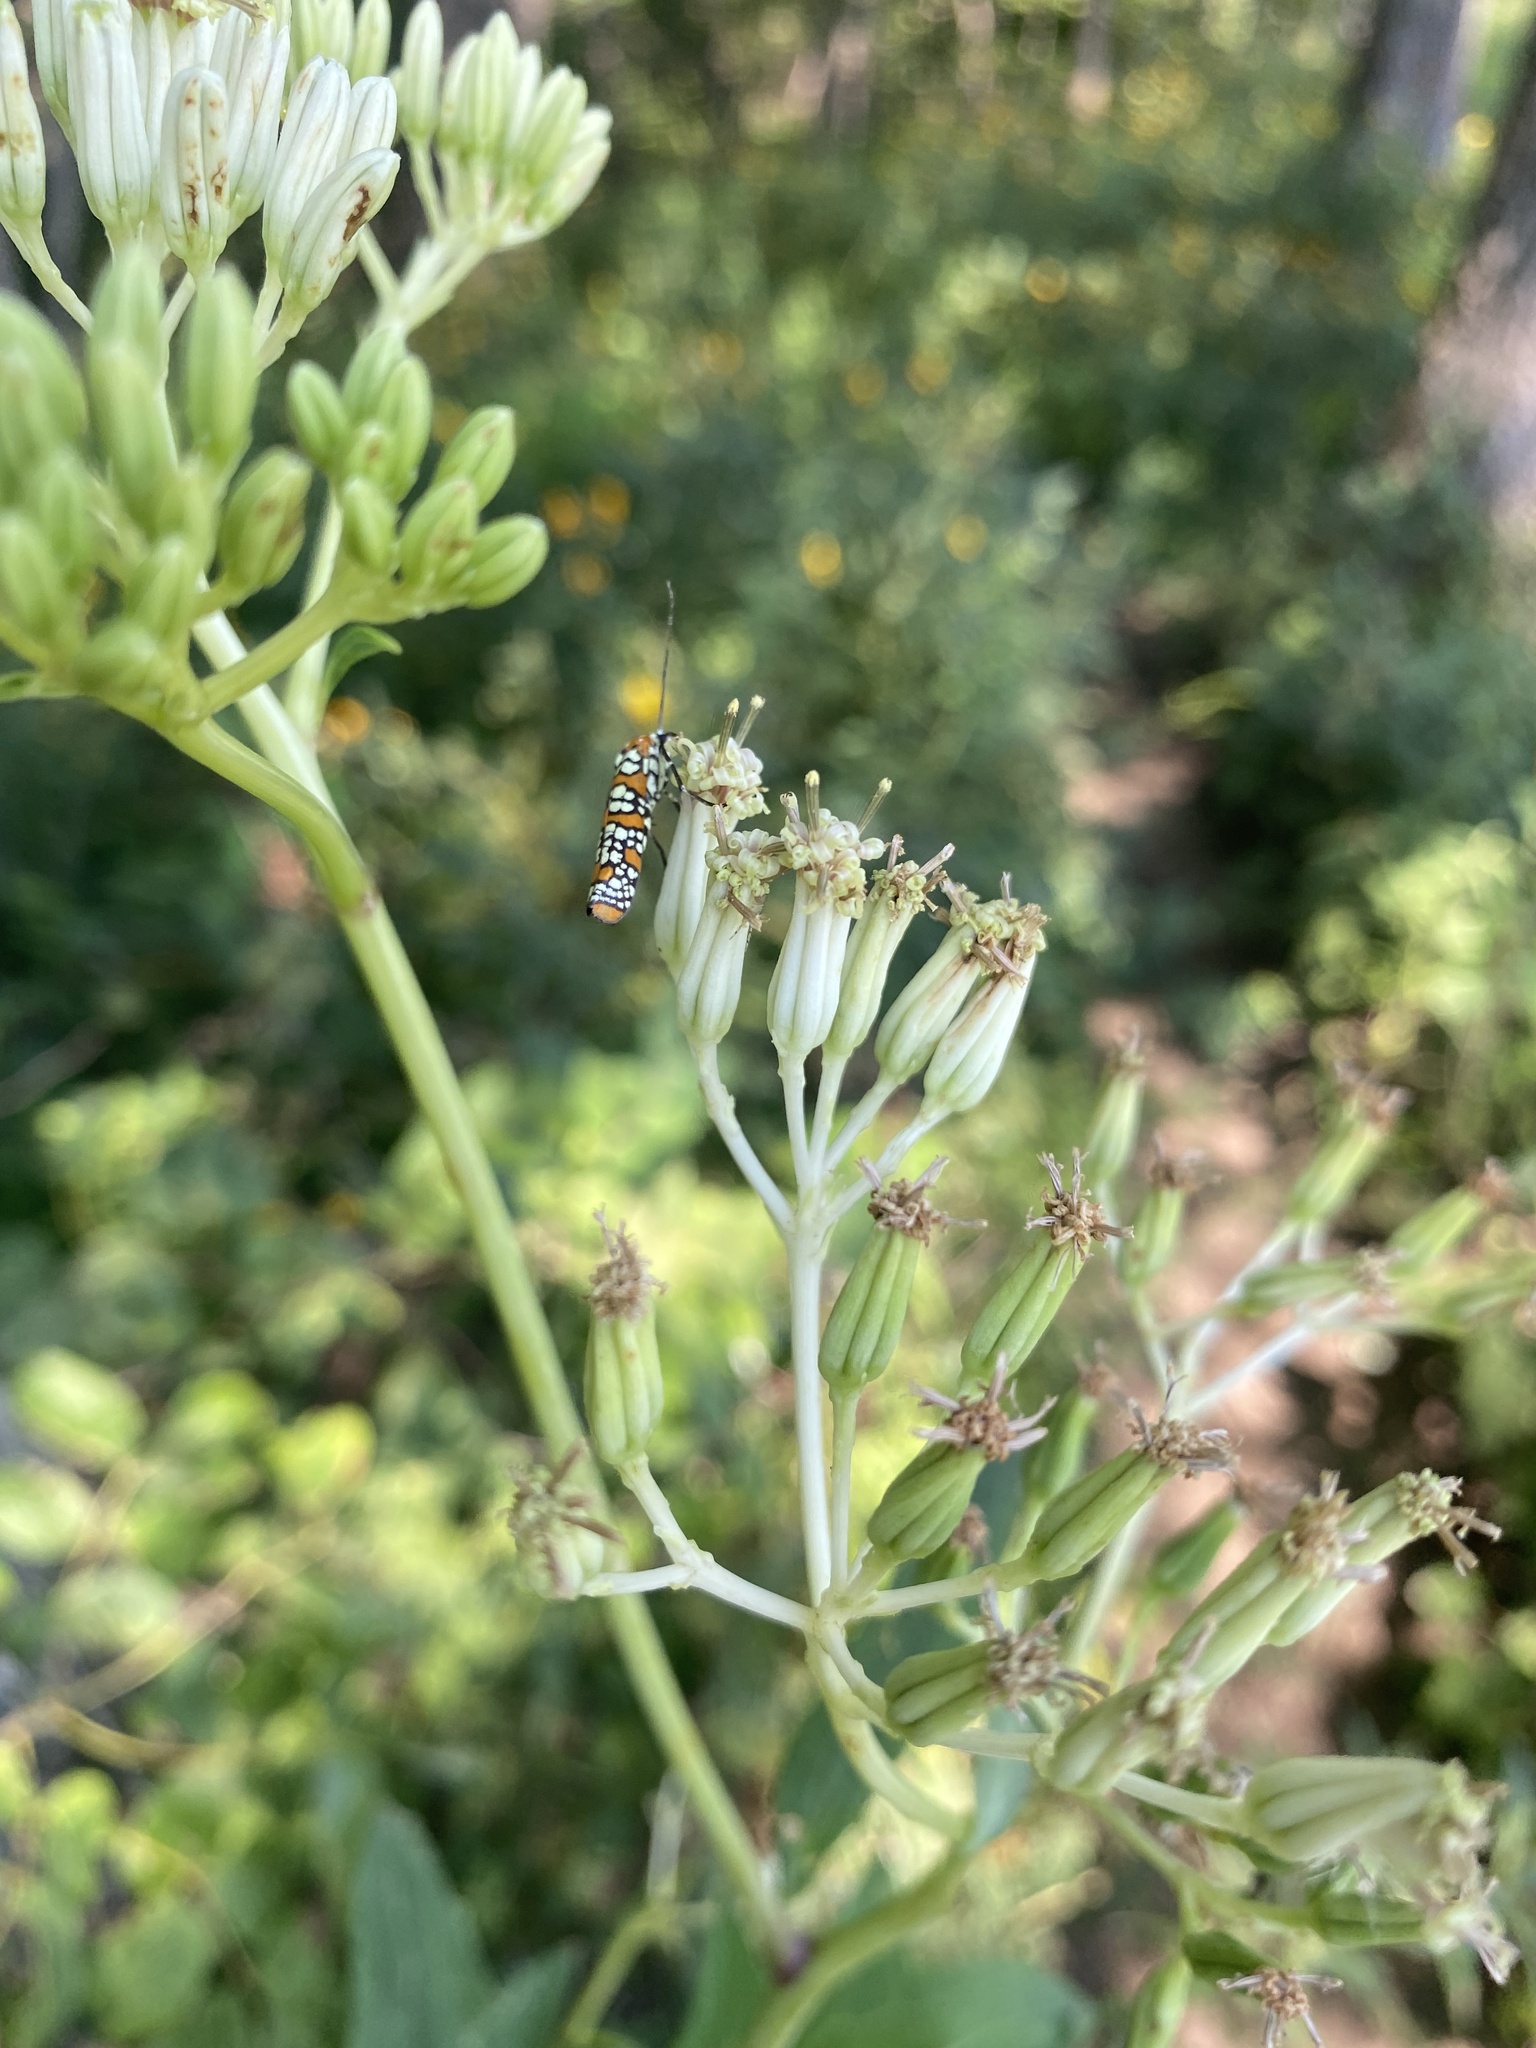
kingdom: Animalia
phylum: Arthropoda
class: Insecta
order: Lepidoptera
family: Attevidae
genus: Atteva
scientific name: Atteva punctella
